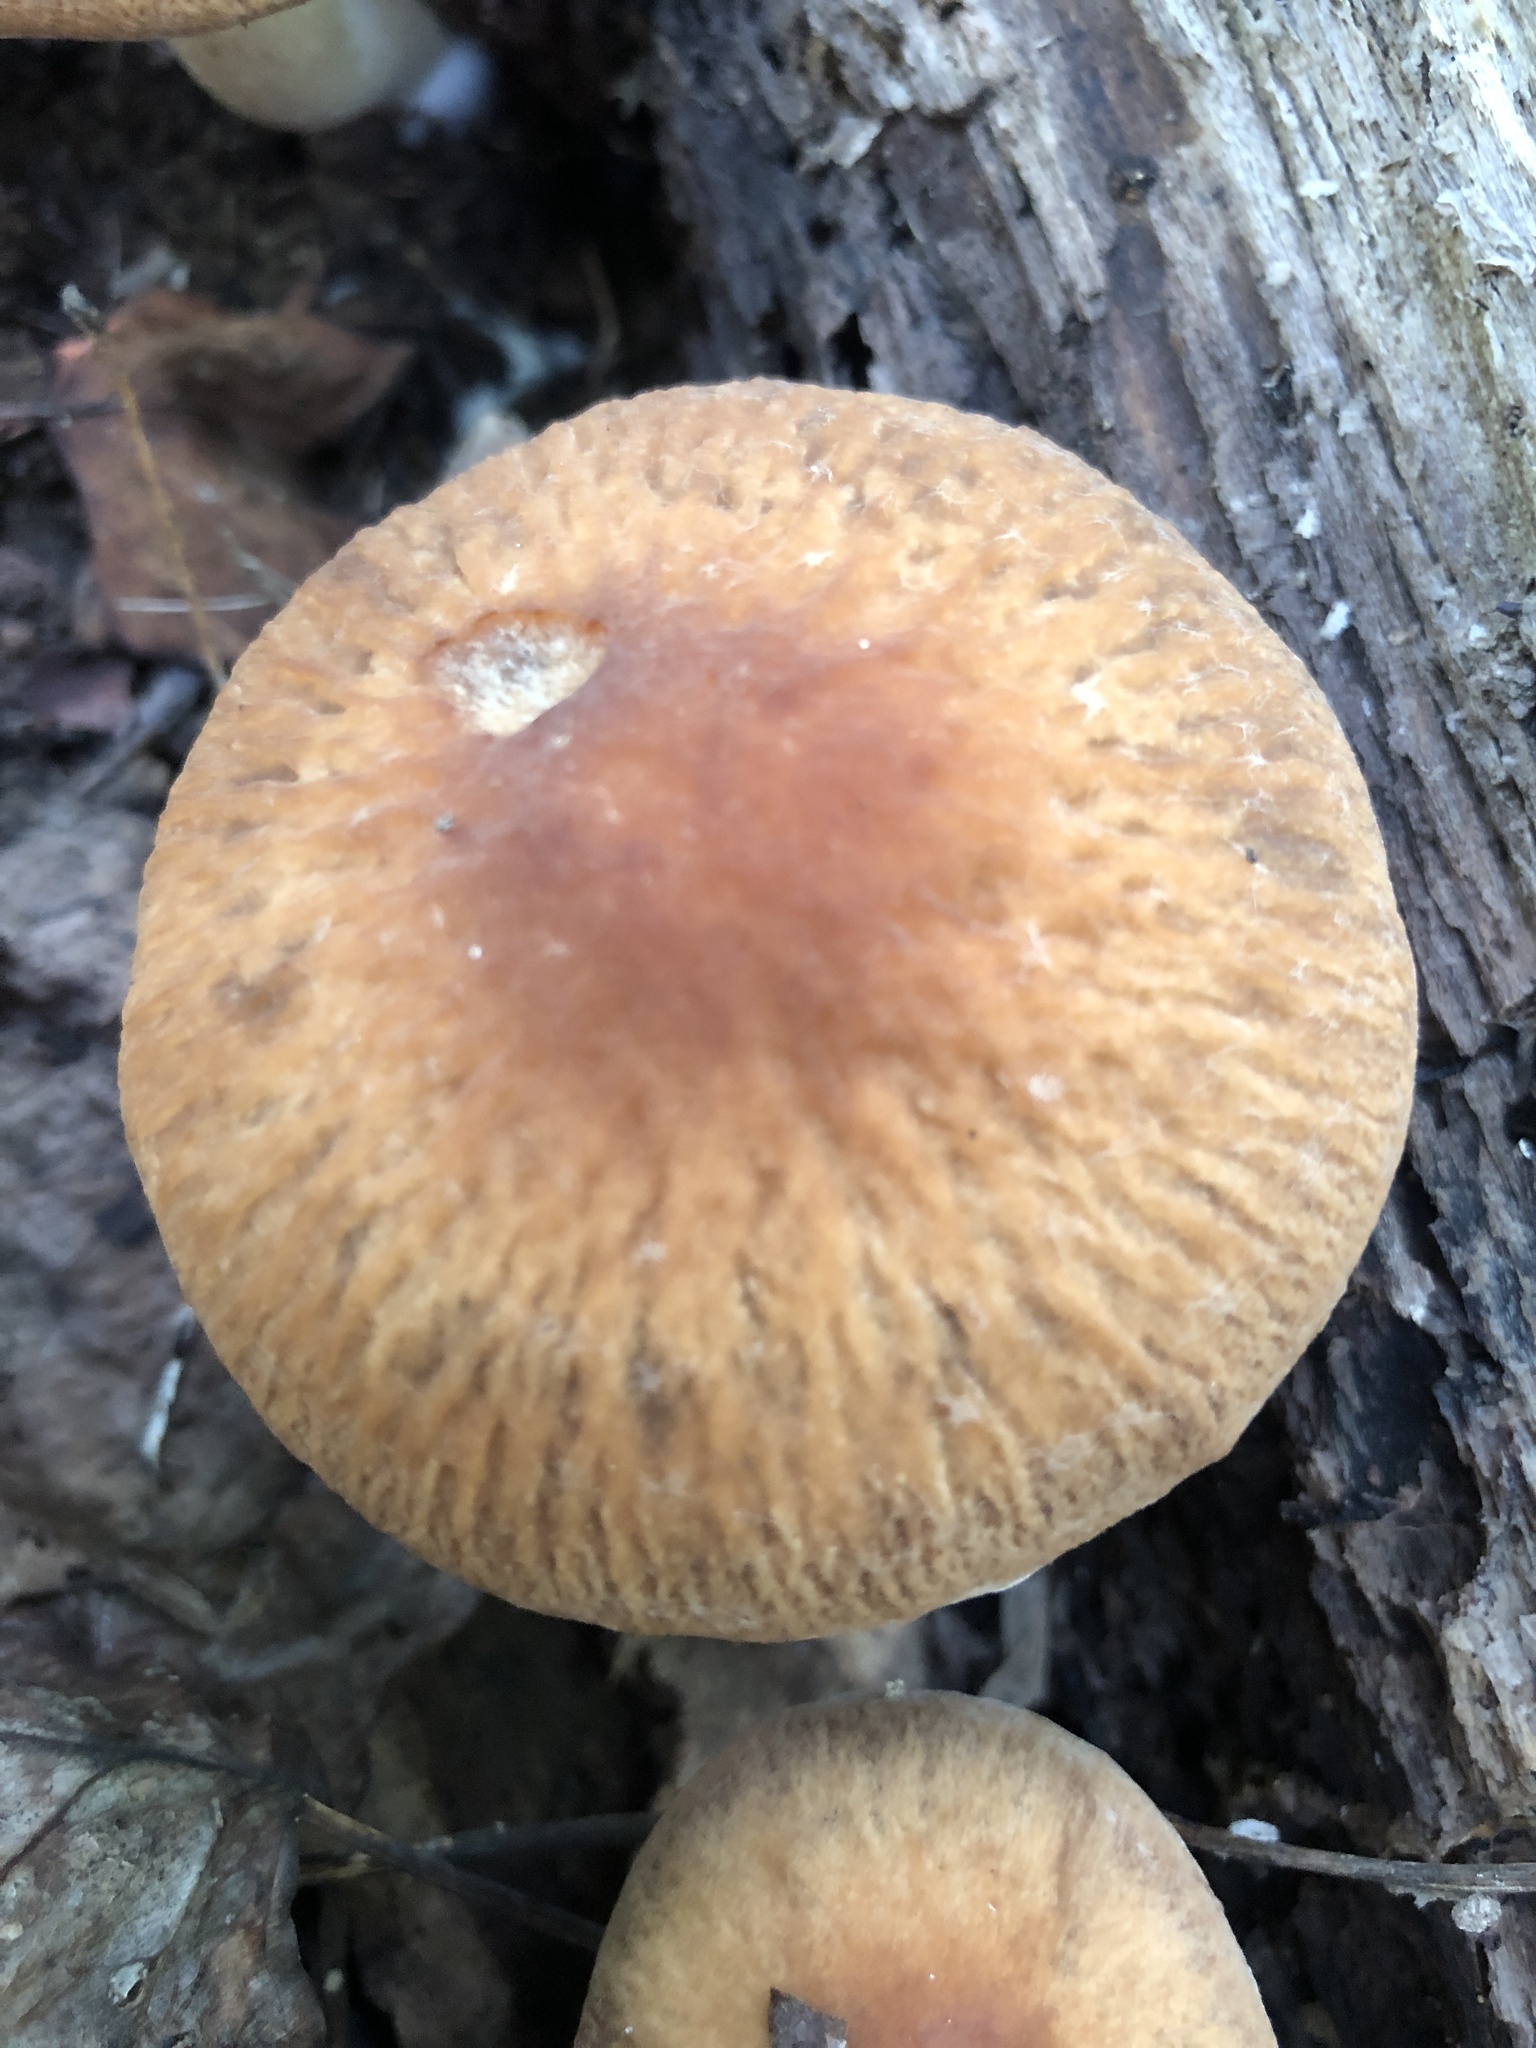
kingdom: Fungi
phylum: Basidiomycota
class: Agaricomycetes
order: Agaricales
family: Psathyrellaceae
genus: Typhrasa
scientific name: Typhrasa gossypina
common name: Wrinkled psathyrella
